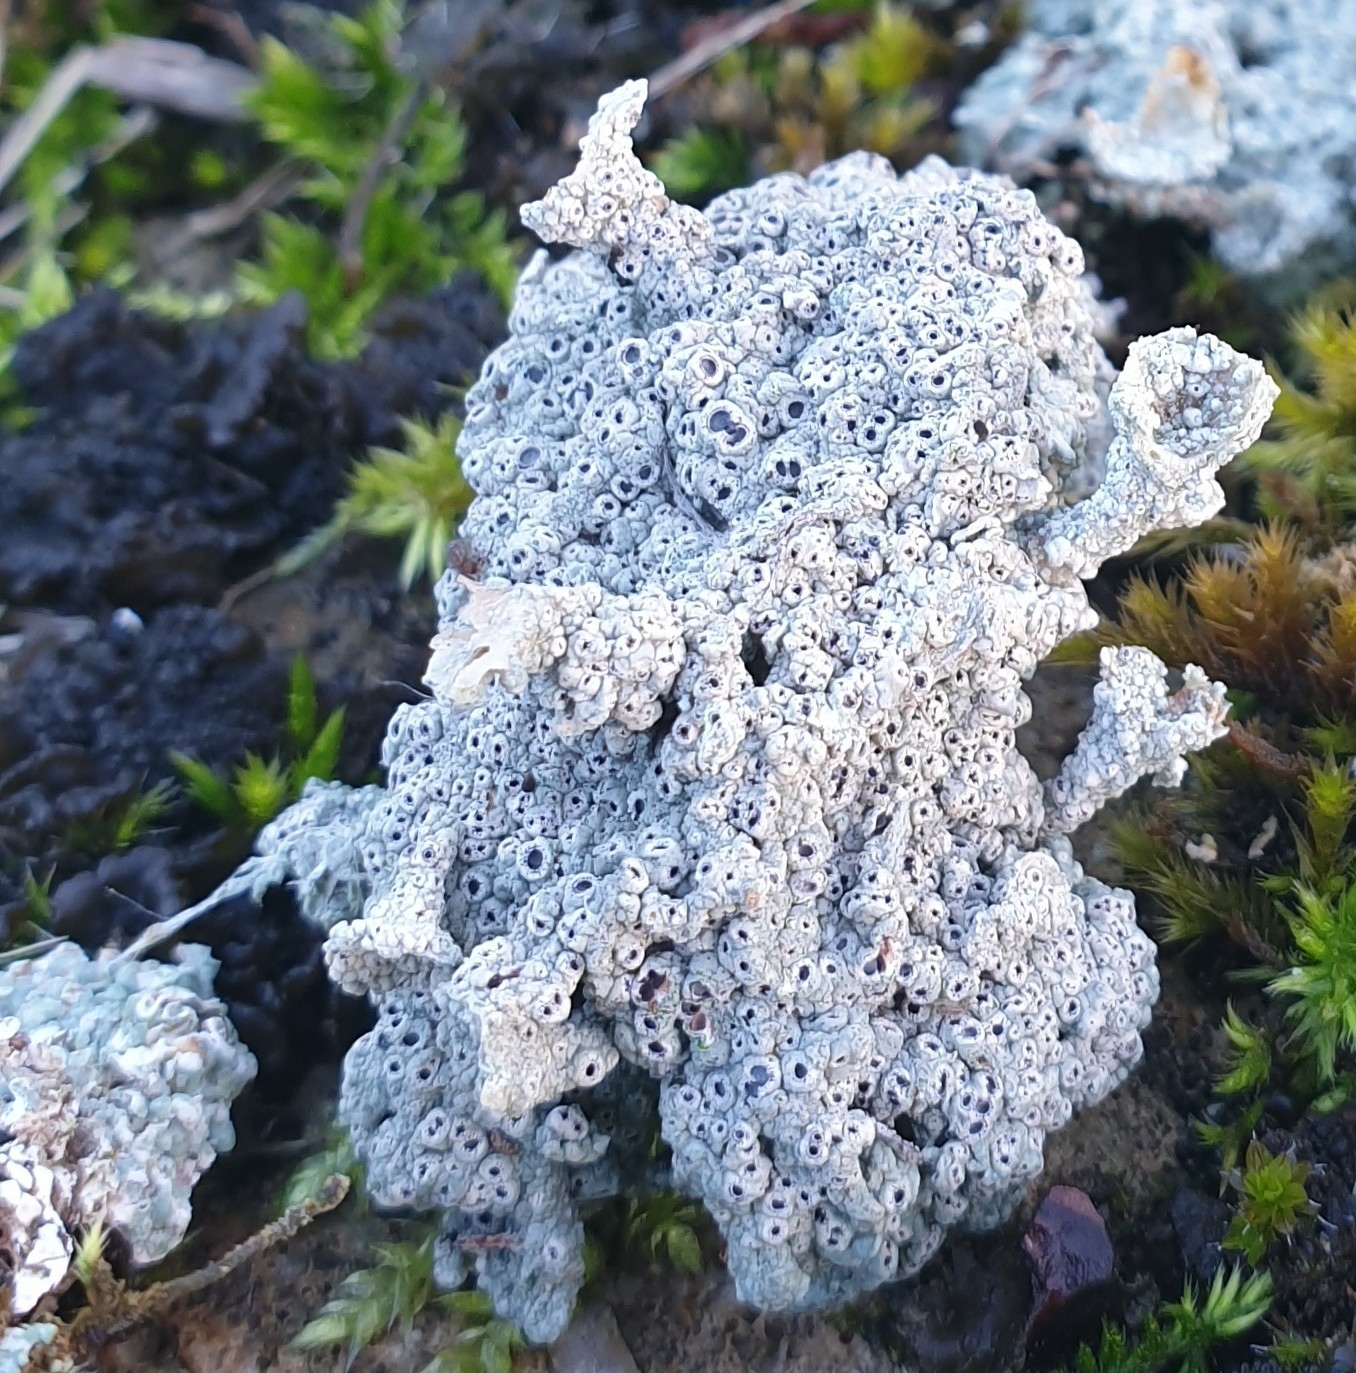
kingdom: Fungi
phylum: Ascomycota
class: Lecanoromycetes
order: Ostropales
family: Graphidaceae
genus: Diploschistes
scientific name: Diploschistes muscorum
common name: Cowpie lichen
